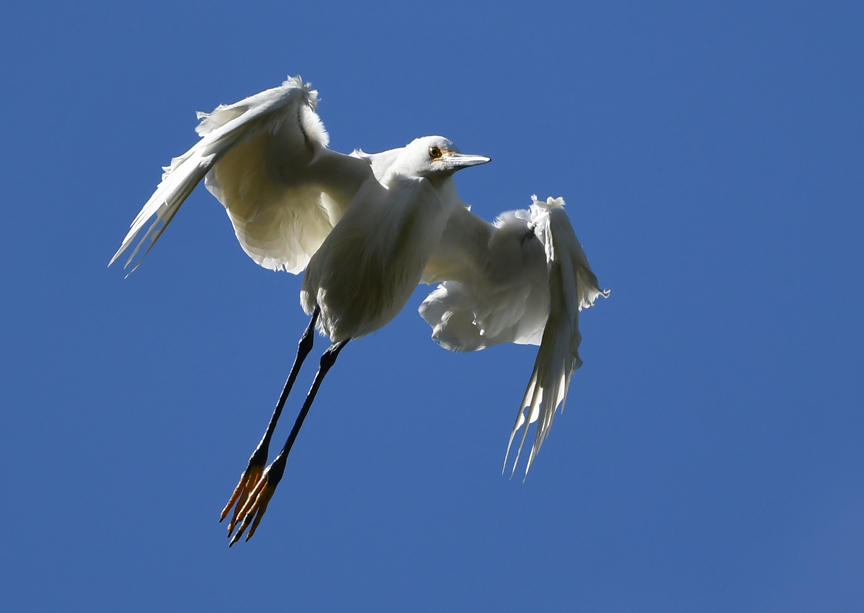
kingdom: Animalia
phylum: Chordata
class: Aves
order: Pelecaniformes
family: Ardeidae
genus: Egretta
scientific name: Egretta thula
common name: Snowy egret
